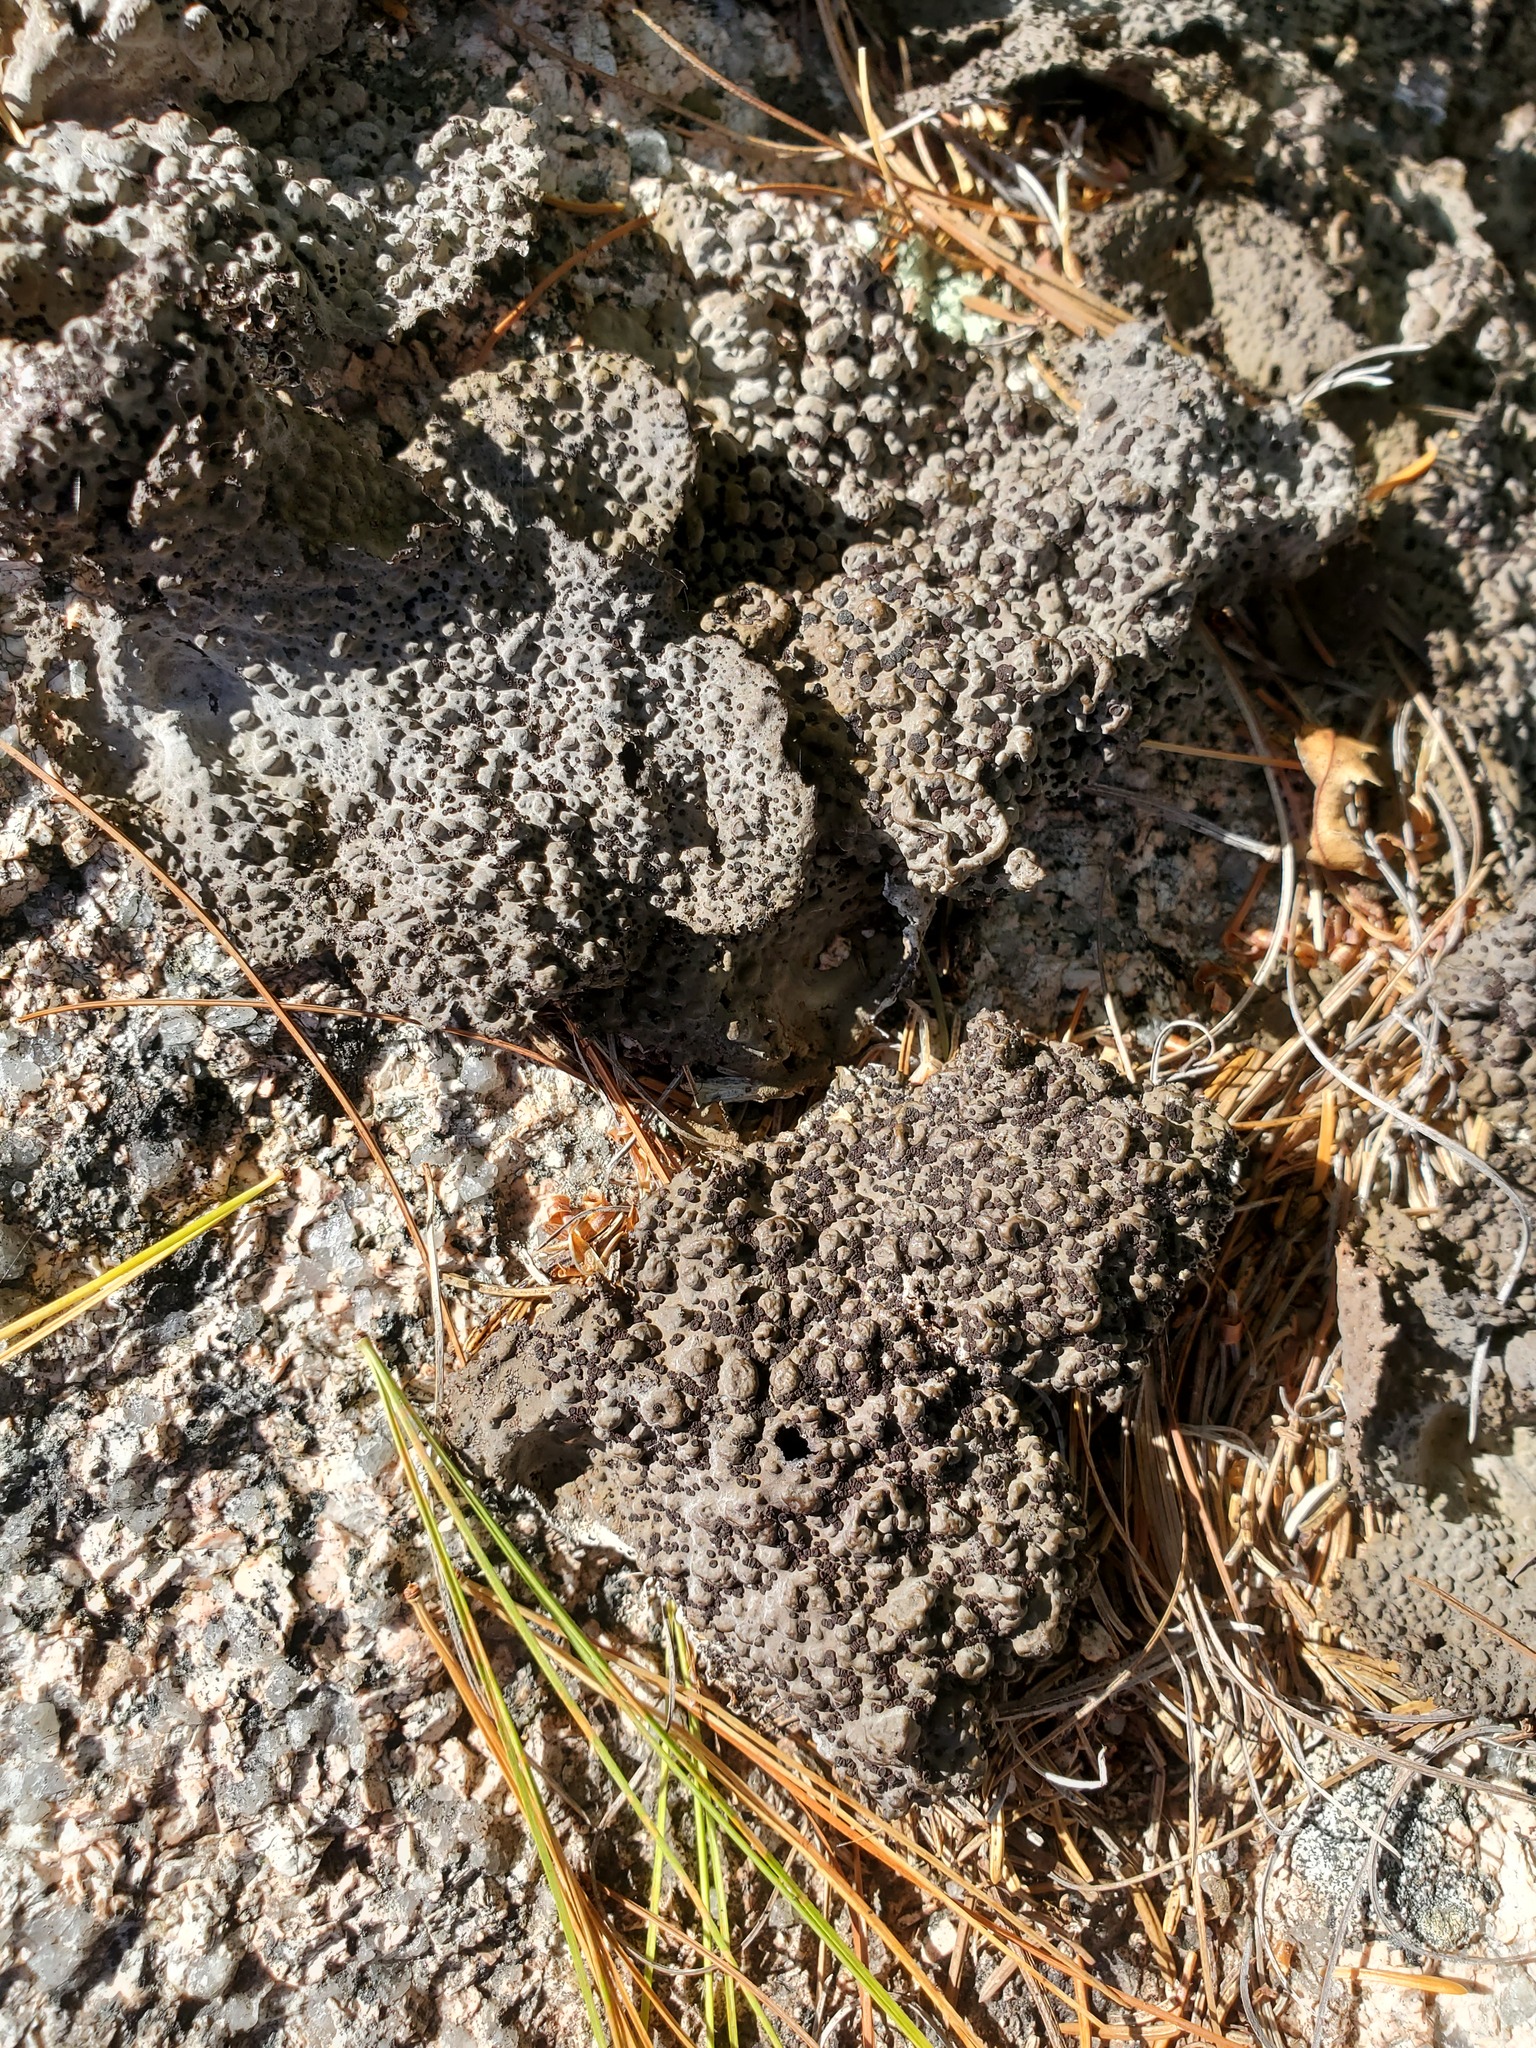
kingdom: Fungi
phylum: Ascomycota
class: Lecanoromycetes
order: Umbilicariales
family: Umbilicariaceae
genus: Lasallia
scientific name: Lasallia papulosa
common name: Common toadskin lichen
